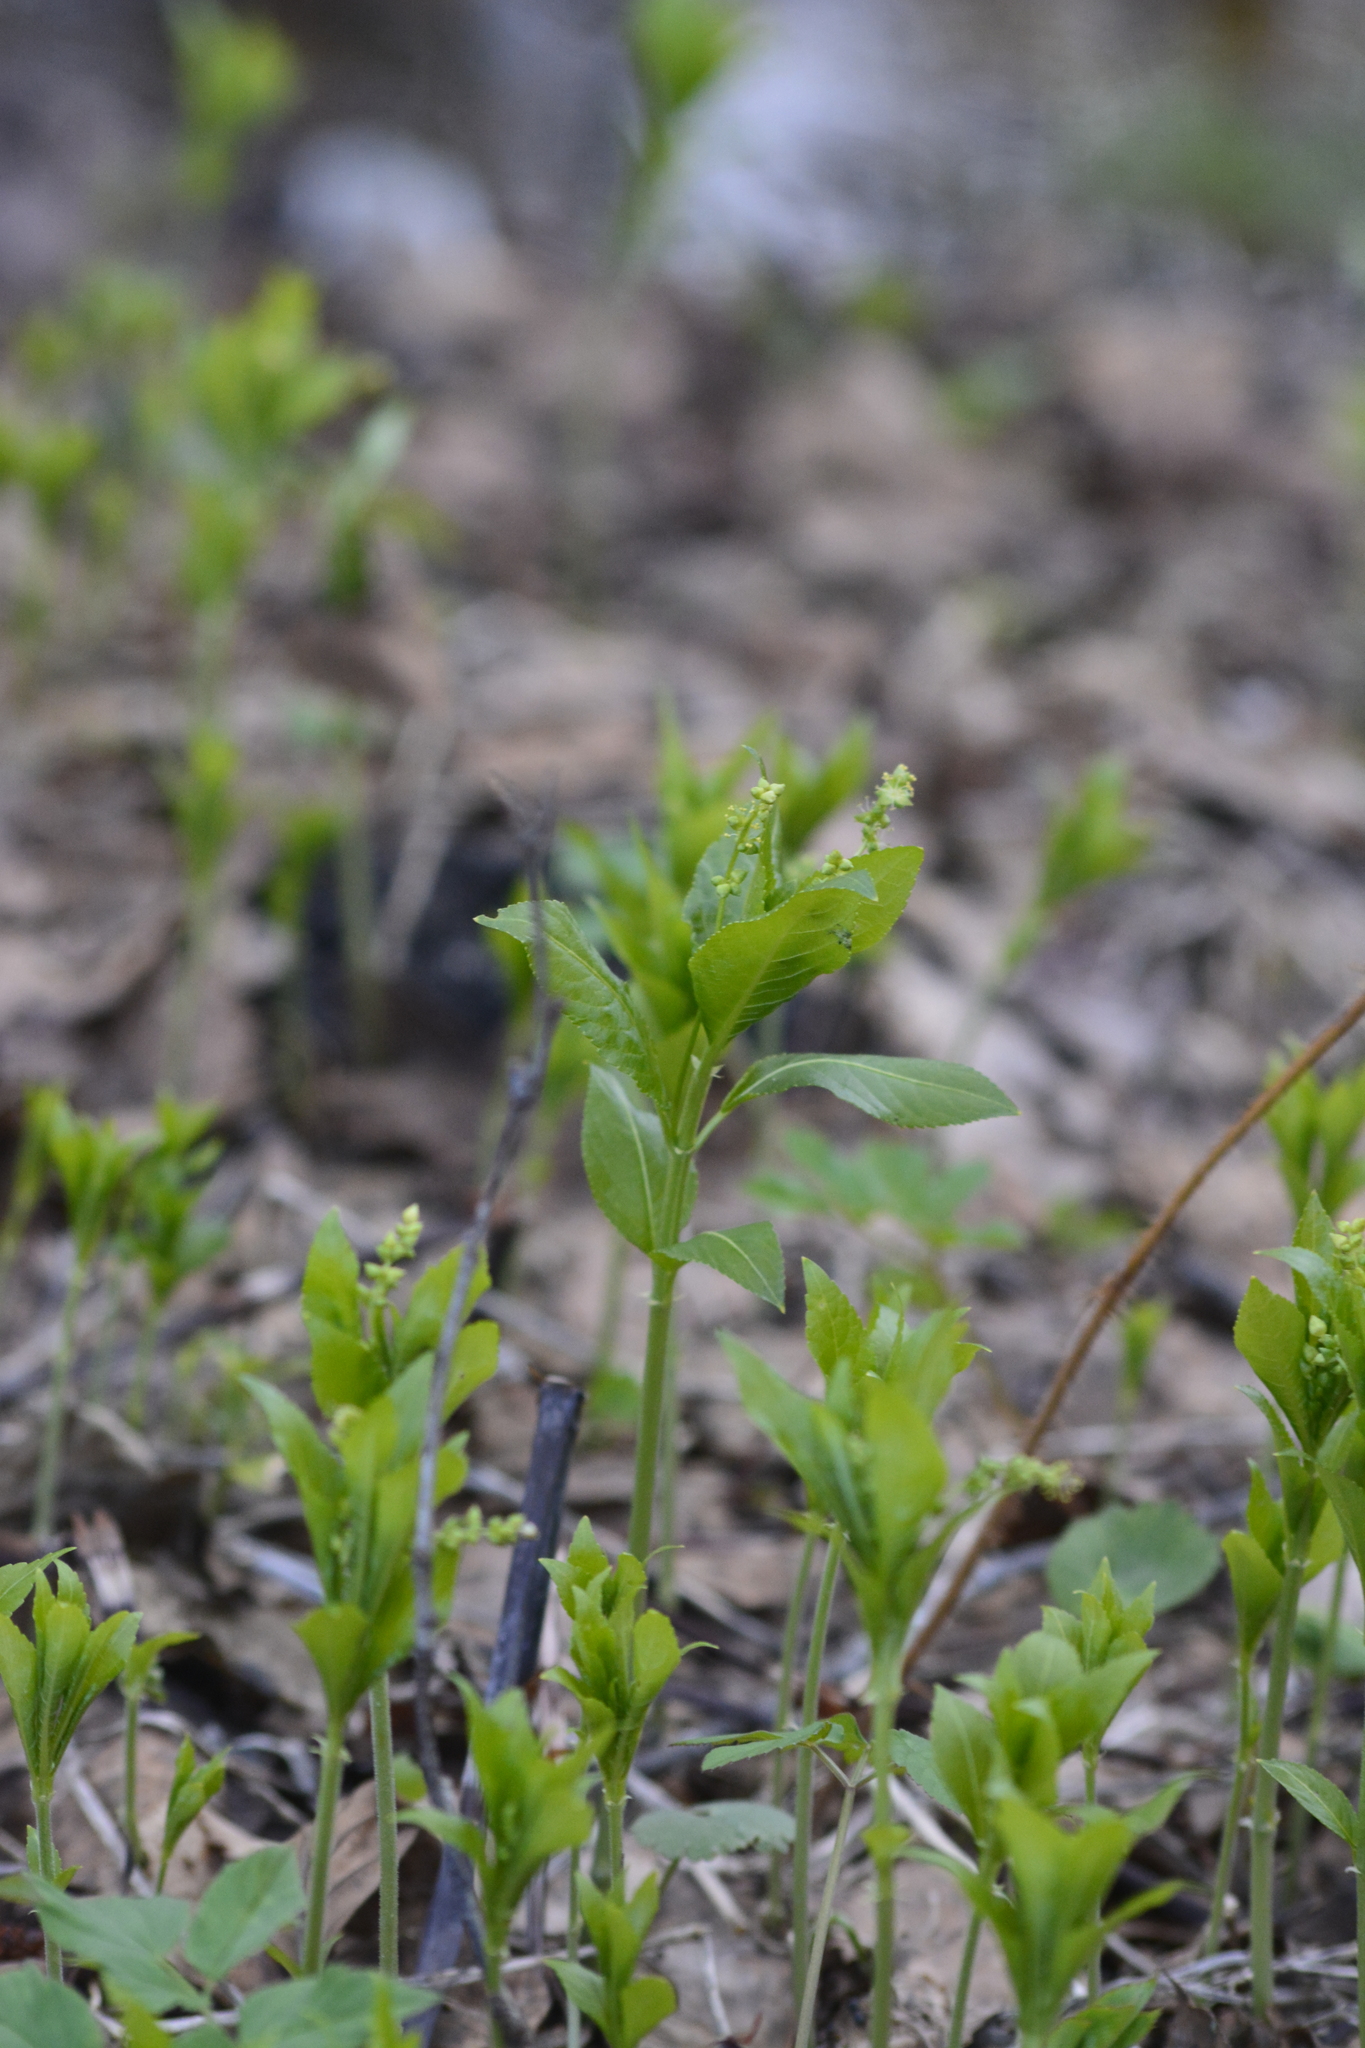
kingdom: Plantae
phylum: Tracheophyta
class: Magnoliopsida
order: Malpighiales
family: Euphorbiaceae
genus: Mercurialis
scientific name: Mercurialis perennis
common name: Dog mercury
